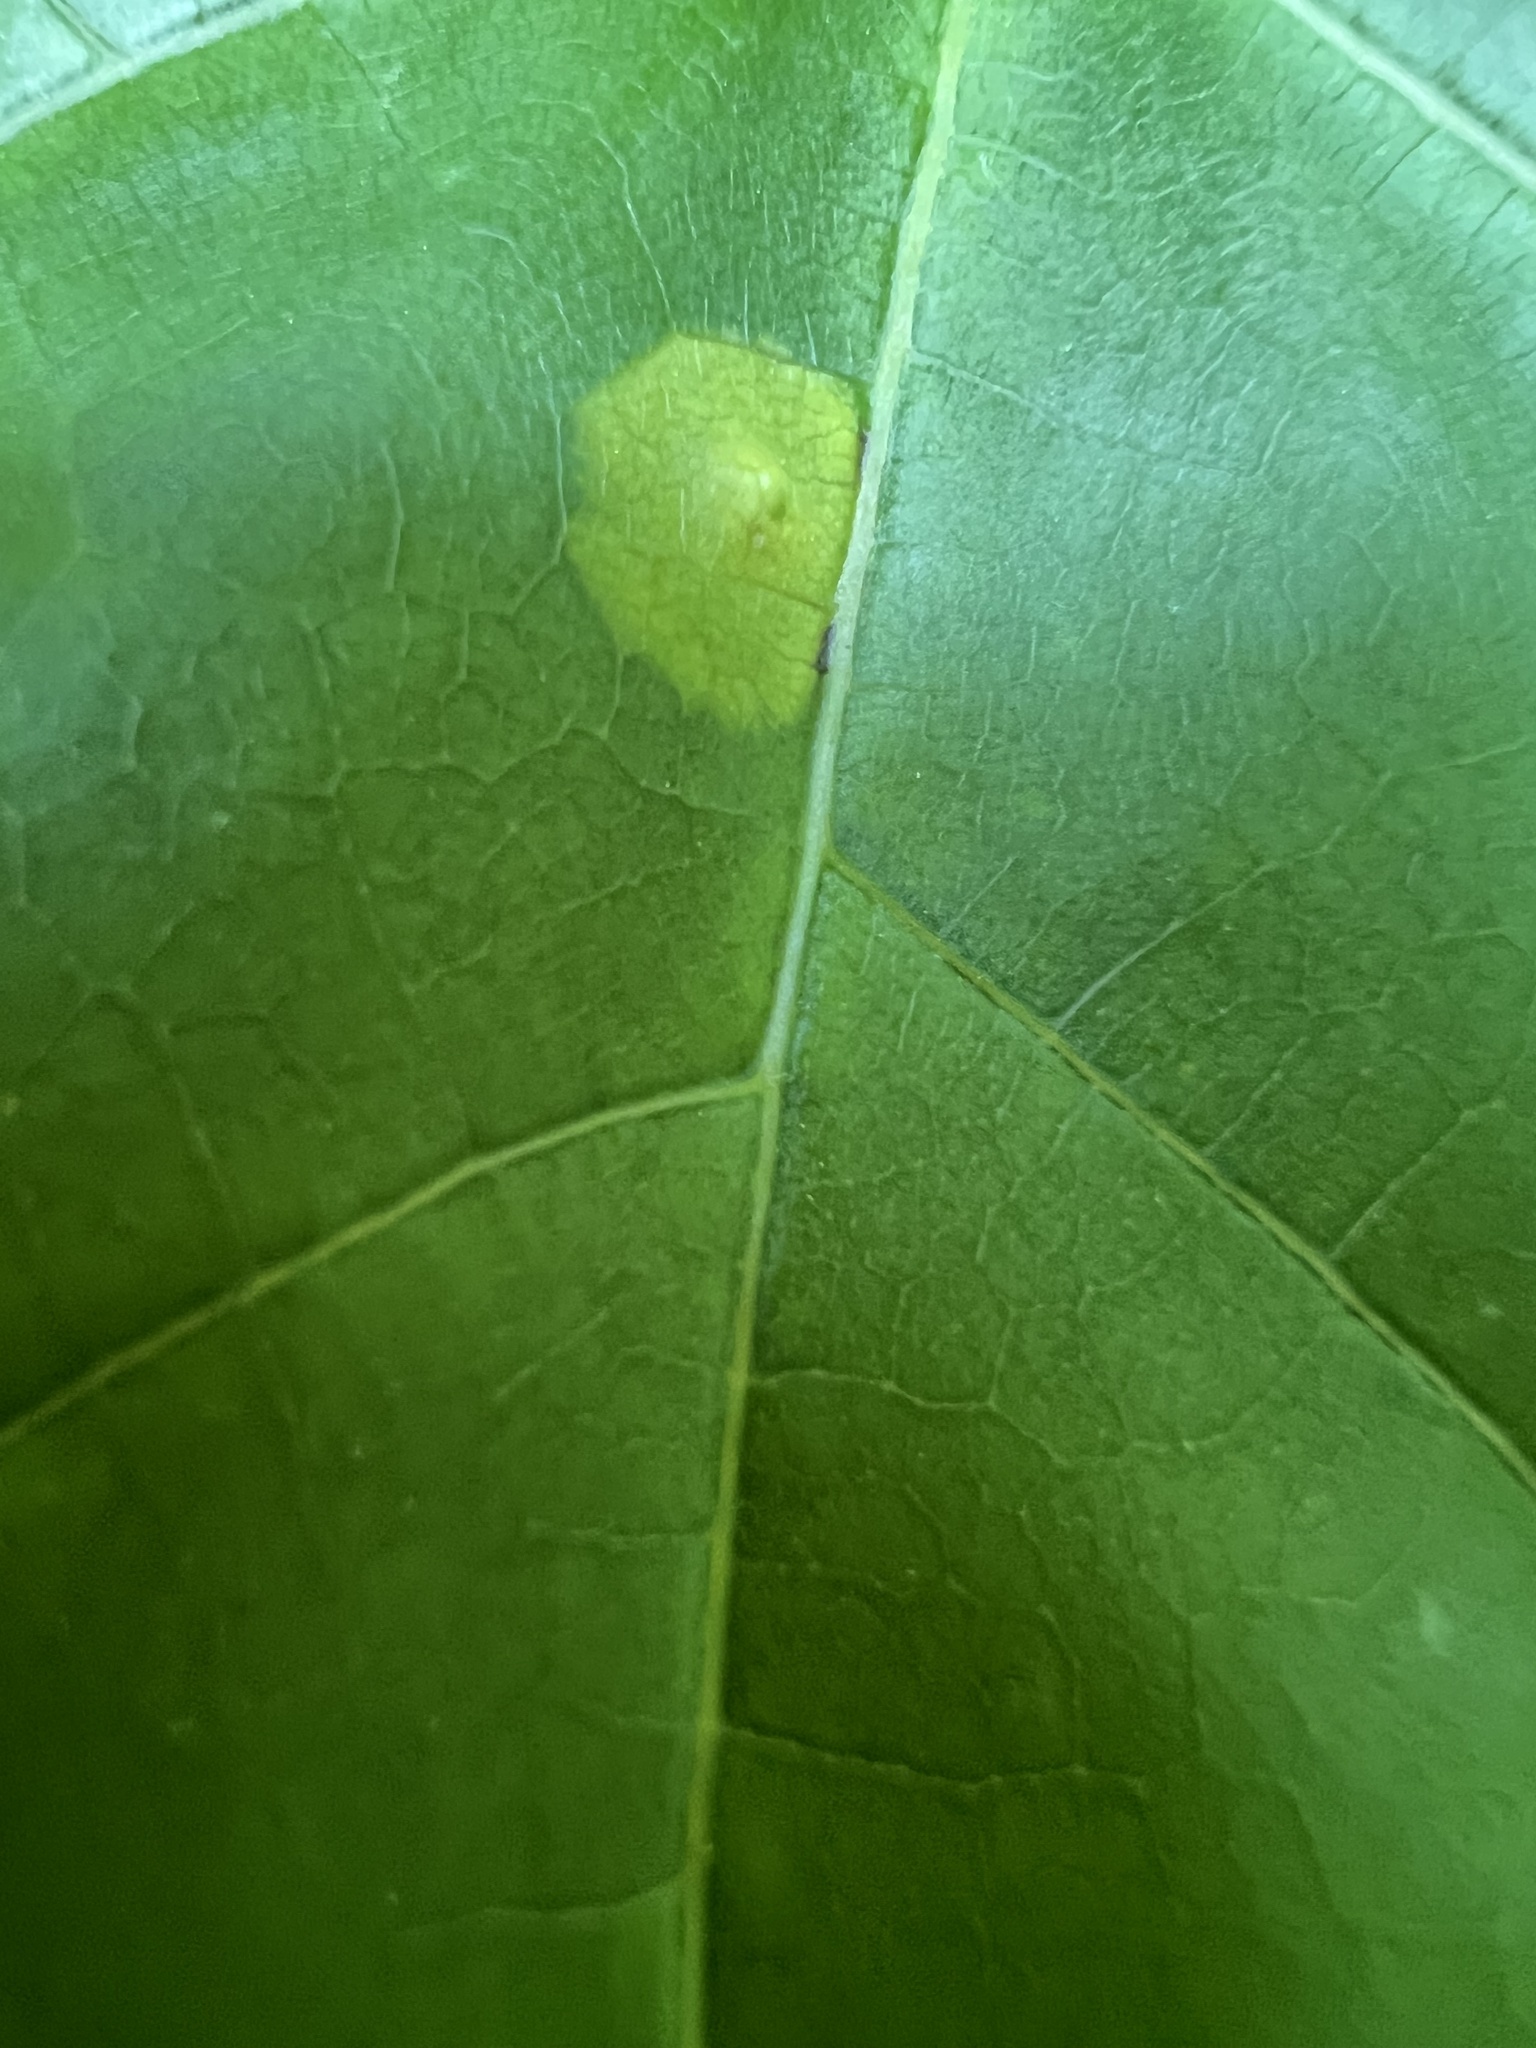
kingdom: Animalia
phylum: Arthropoda
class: Insecta
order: Diptera
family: Cecidomyiidae
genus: Acericecis
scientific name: Acericecis ocellaris
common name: Ocellate gall midge
